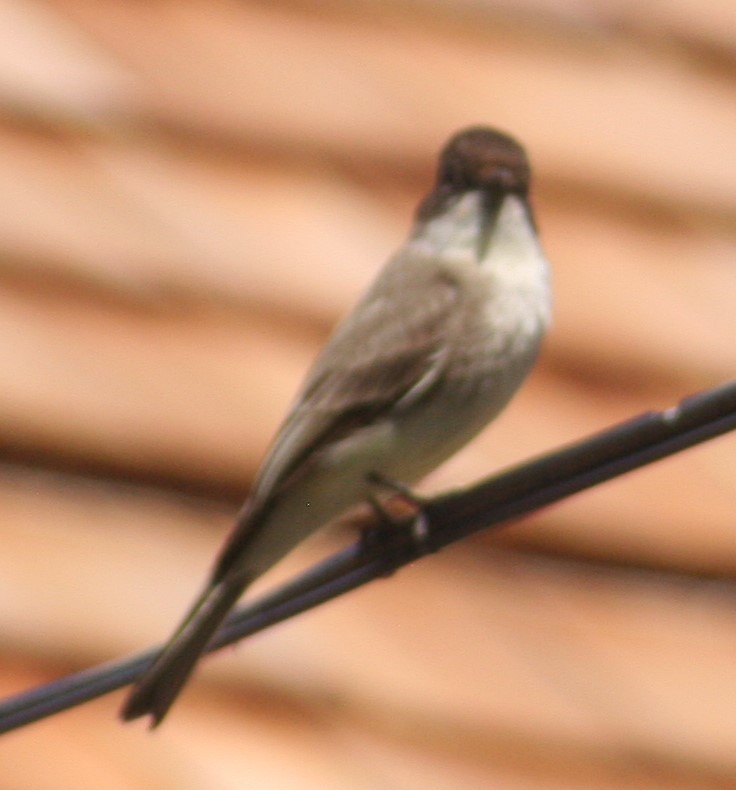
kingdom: Animalia
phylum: Chordata
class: Aves
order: Passeriformes
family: Tyrannidae
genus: Sayornis
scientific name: Sayornis phoebe
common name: Eastern phoebe
